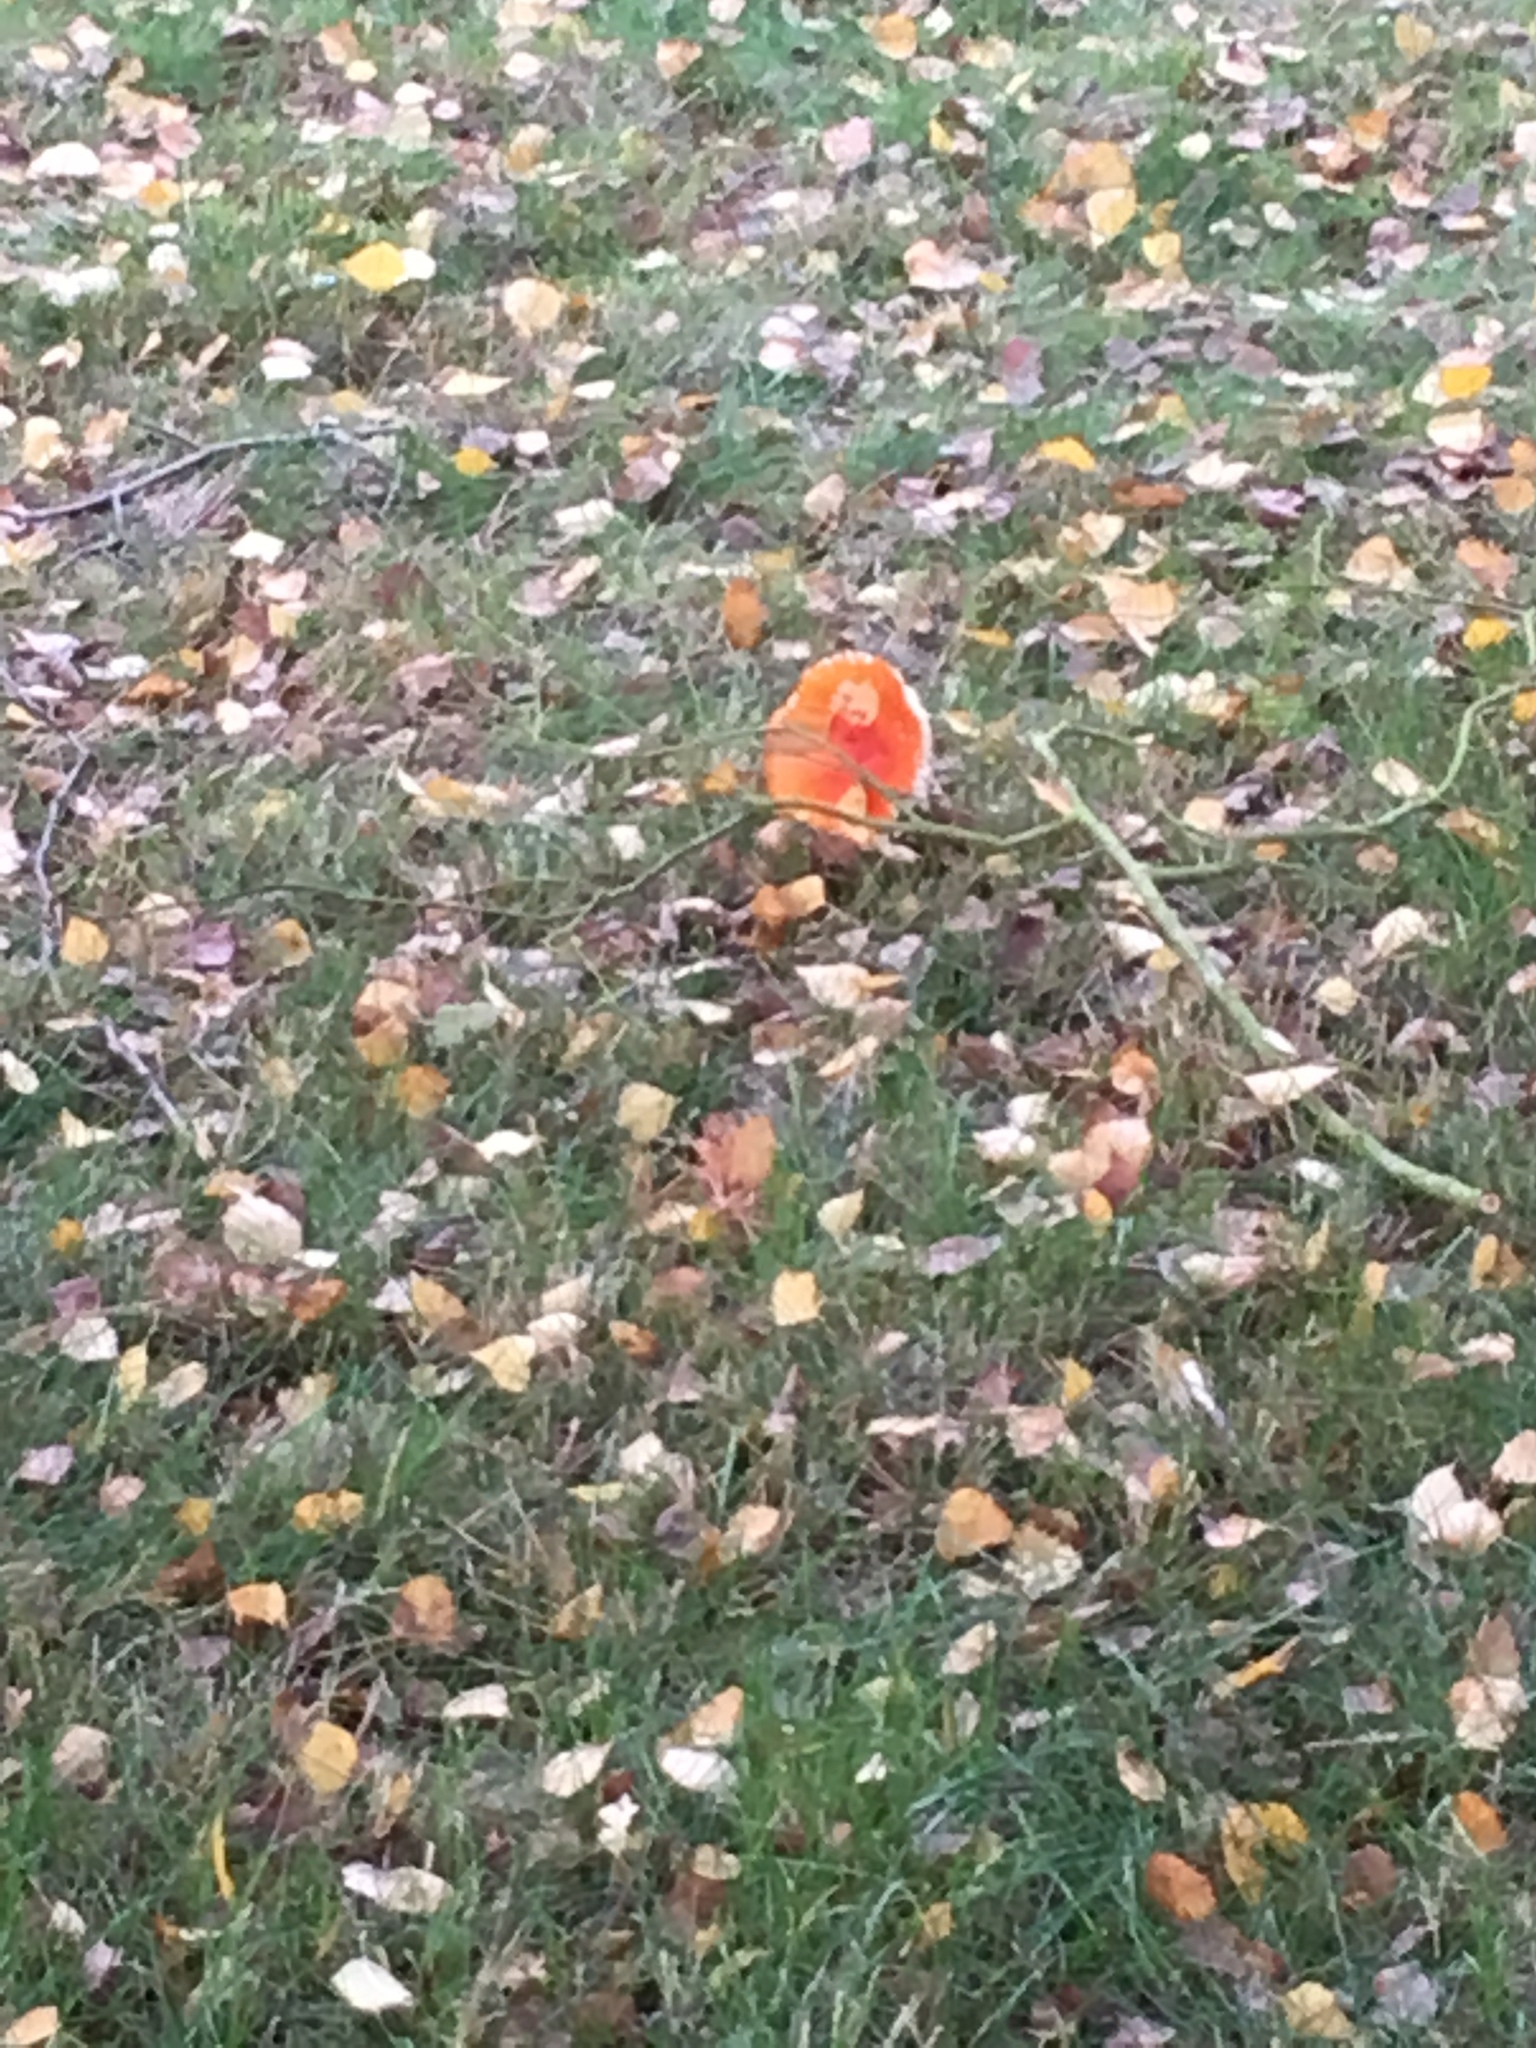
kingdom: Fungi
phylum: Basidiomycota
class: Agaricomycetes
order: Agaricales
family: Amanitaceae
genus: Amanita
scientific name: Amanita muscaria
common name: Fly agaric
